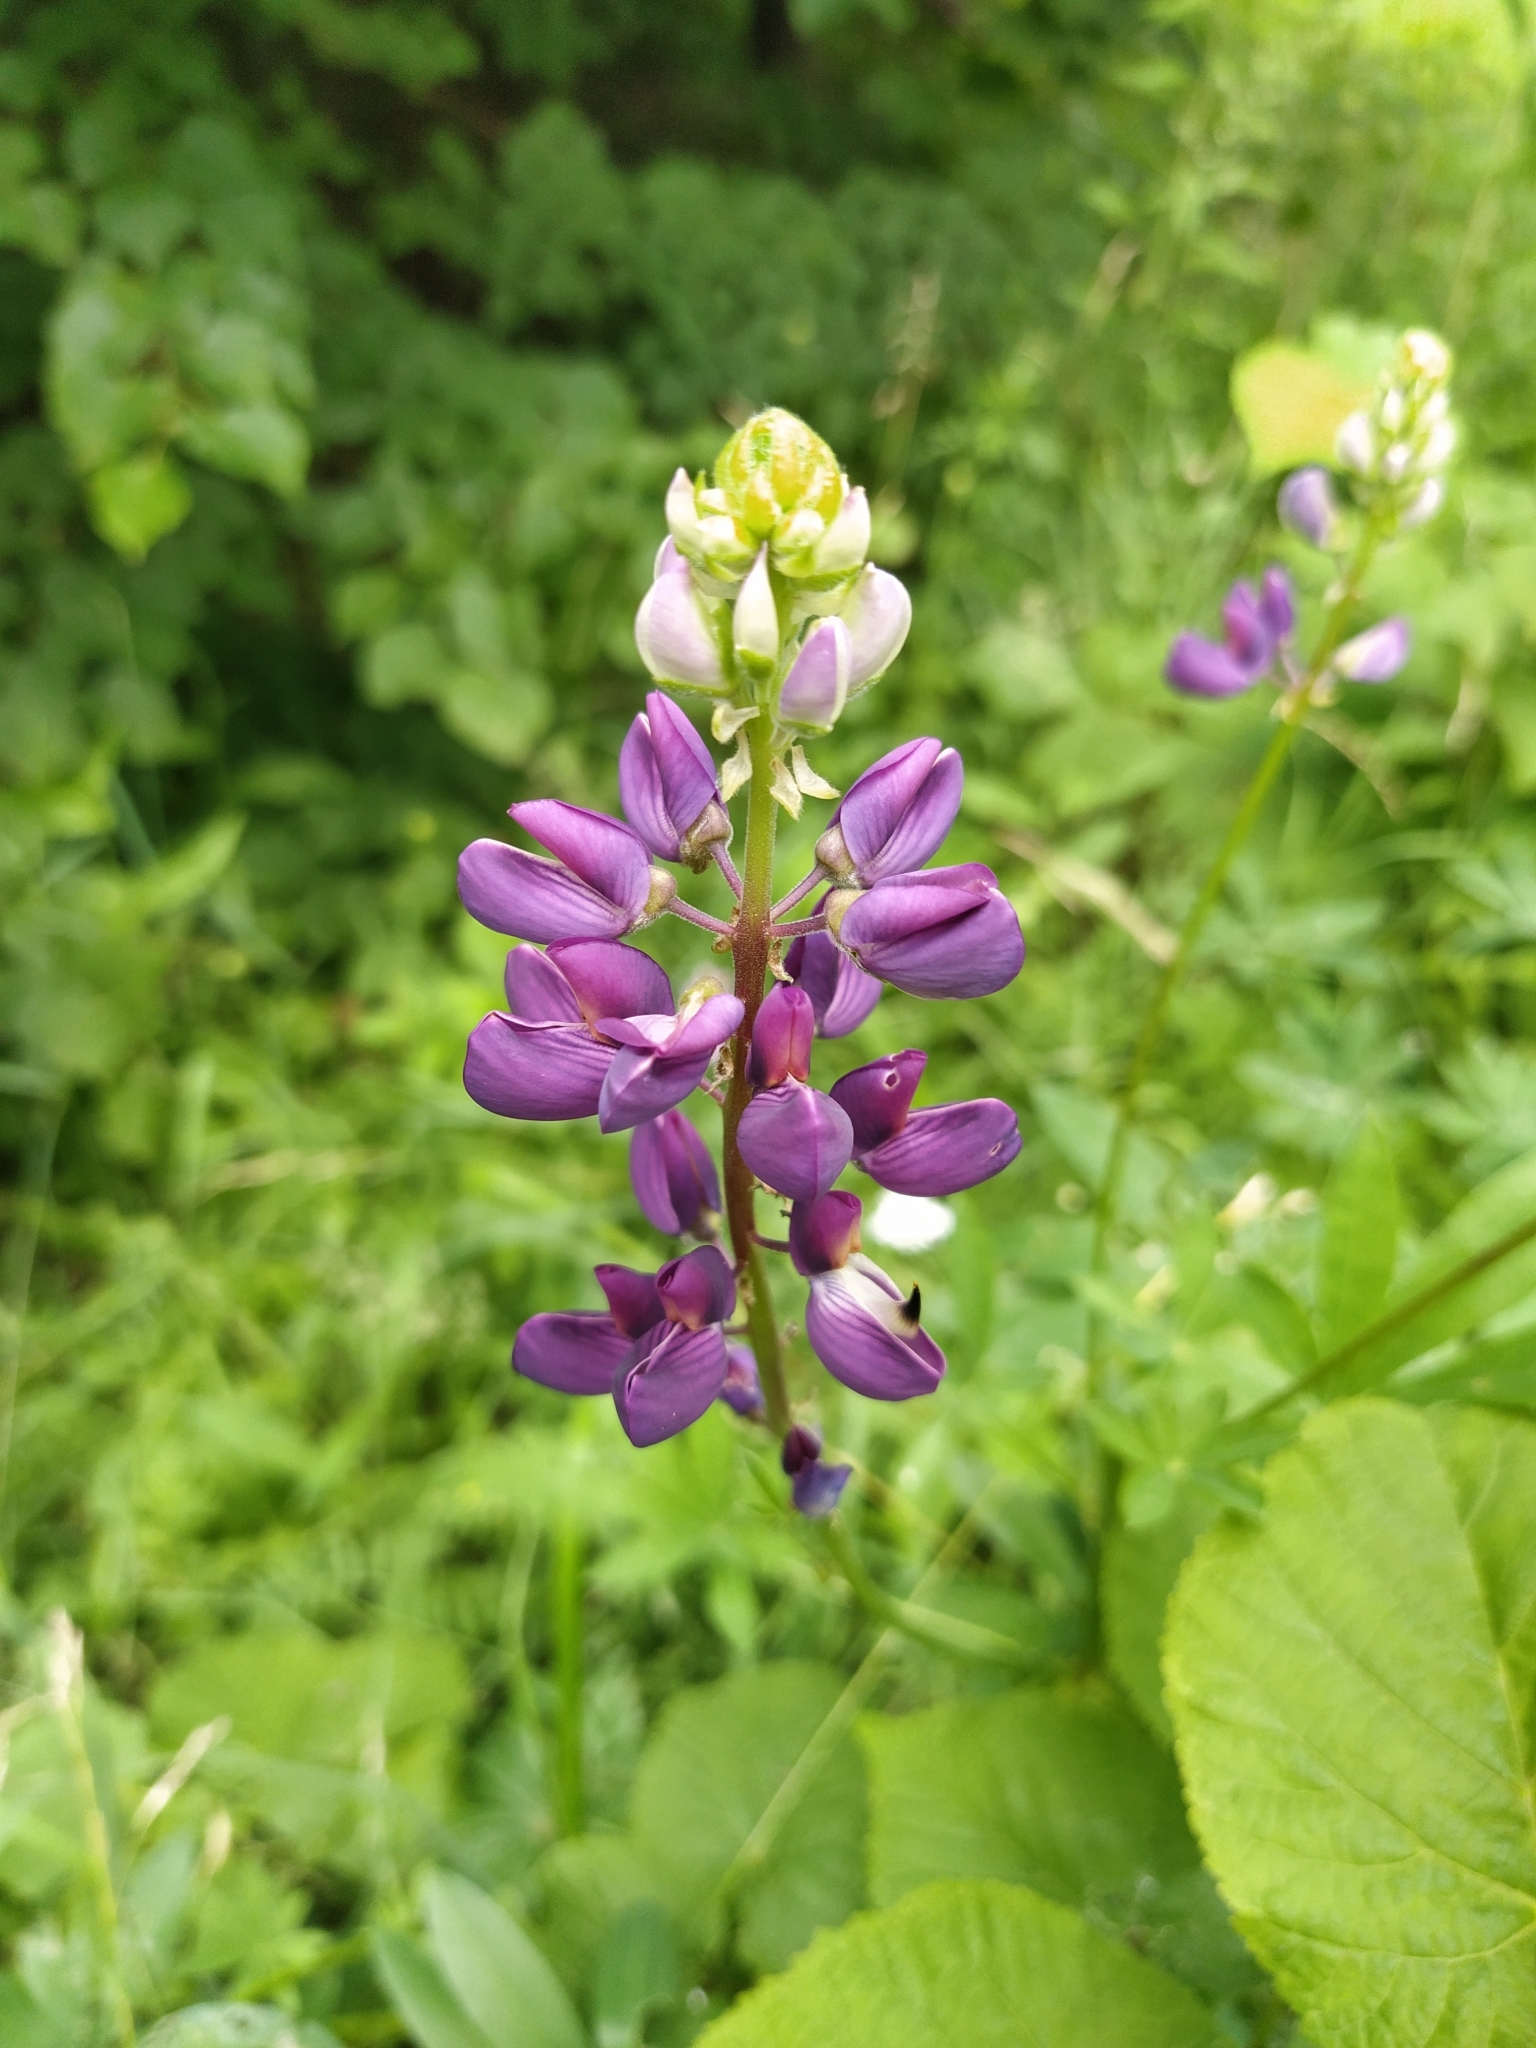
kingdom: Plantae
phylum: Tracheophyta
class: Magnoliopsida
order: Fabales
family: Fabaceae
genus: Lupinus
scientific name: Lupinus polyphyllus
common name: Garden lupin
